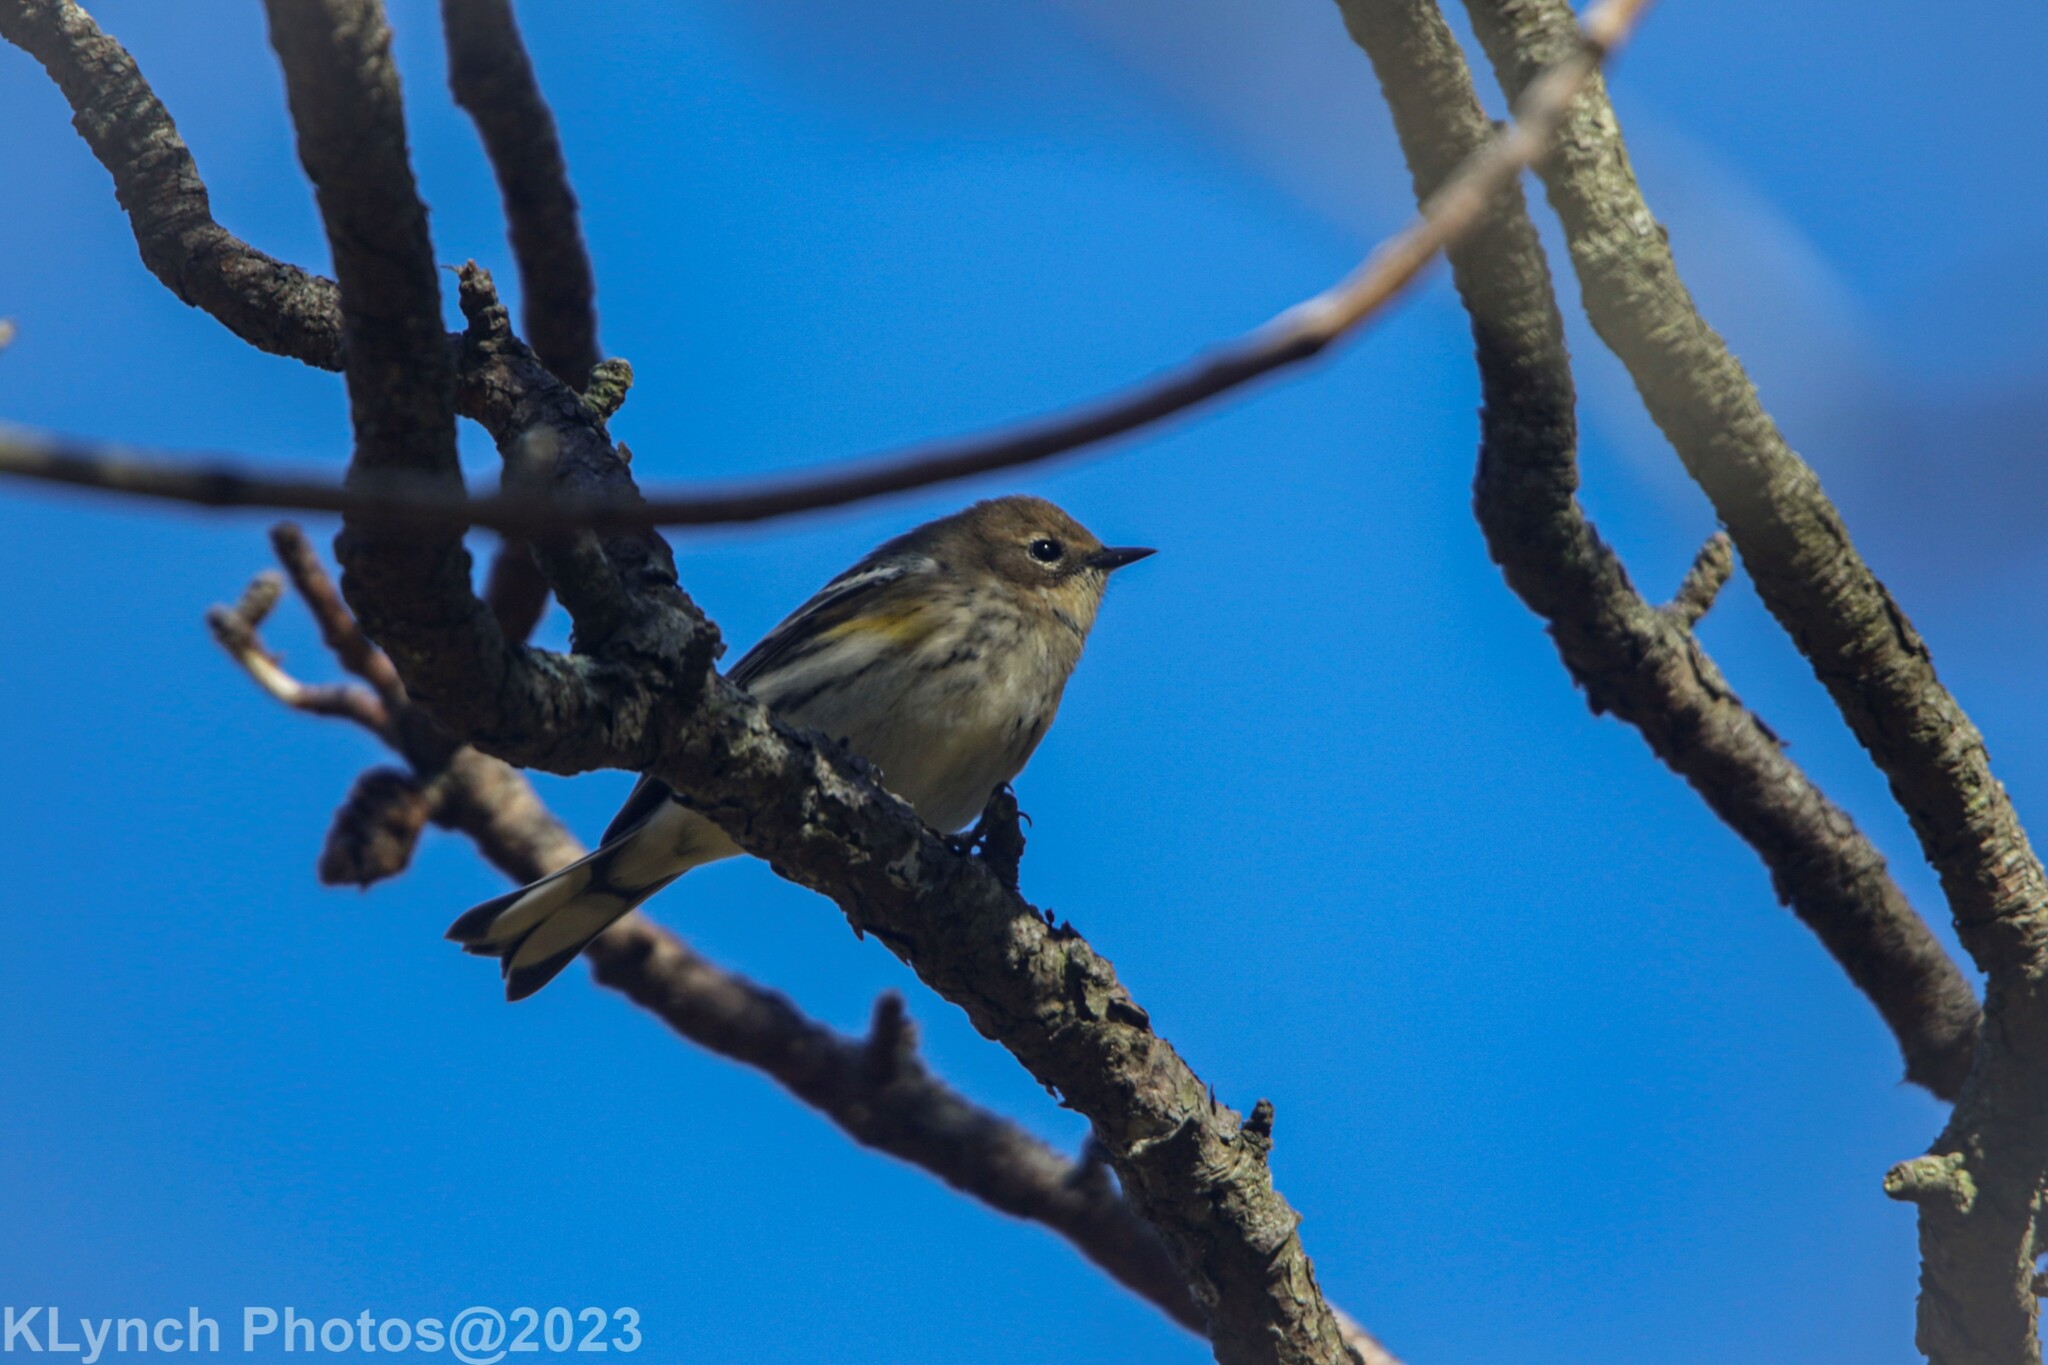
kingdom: Animalia
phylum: Chordata
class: Aves
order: Passeriformes
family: Parulidae
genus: Setophaga
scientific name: Setophaga coronata
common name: Myrtle warbler
